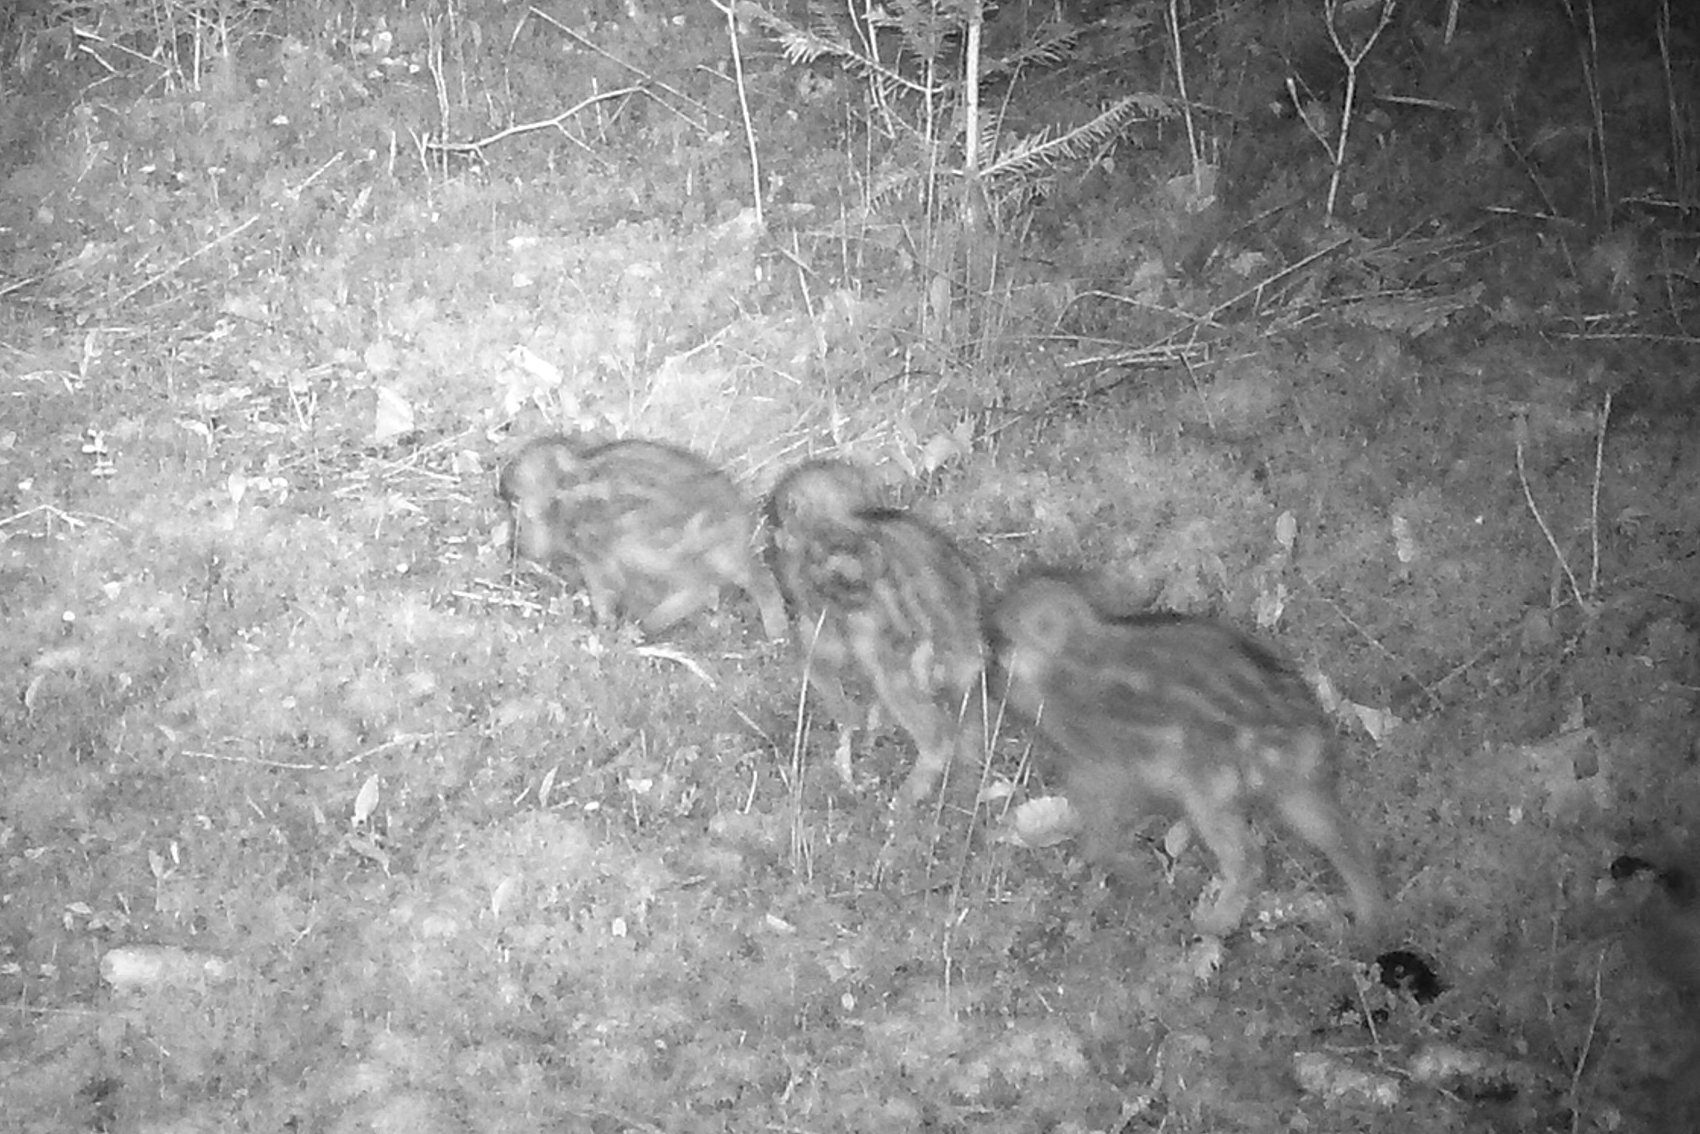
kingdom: Animalia
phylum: Chordata
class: Mammalia
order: Artiodactyla
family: Suidae
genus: Sus
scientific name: Sus scrofa
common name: Wild boar
